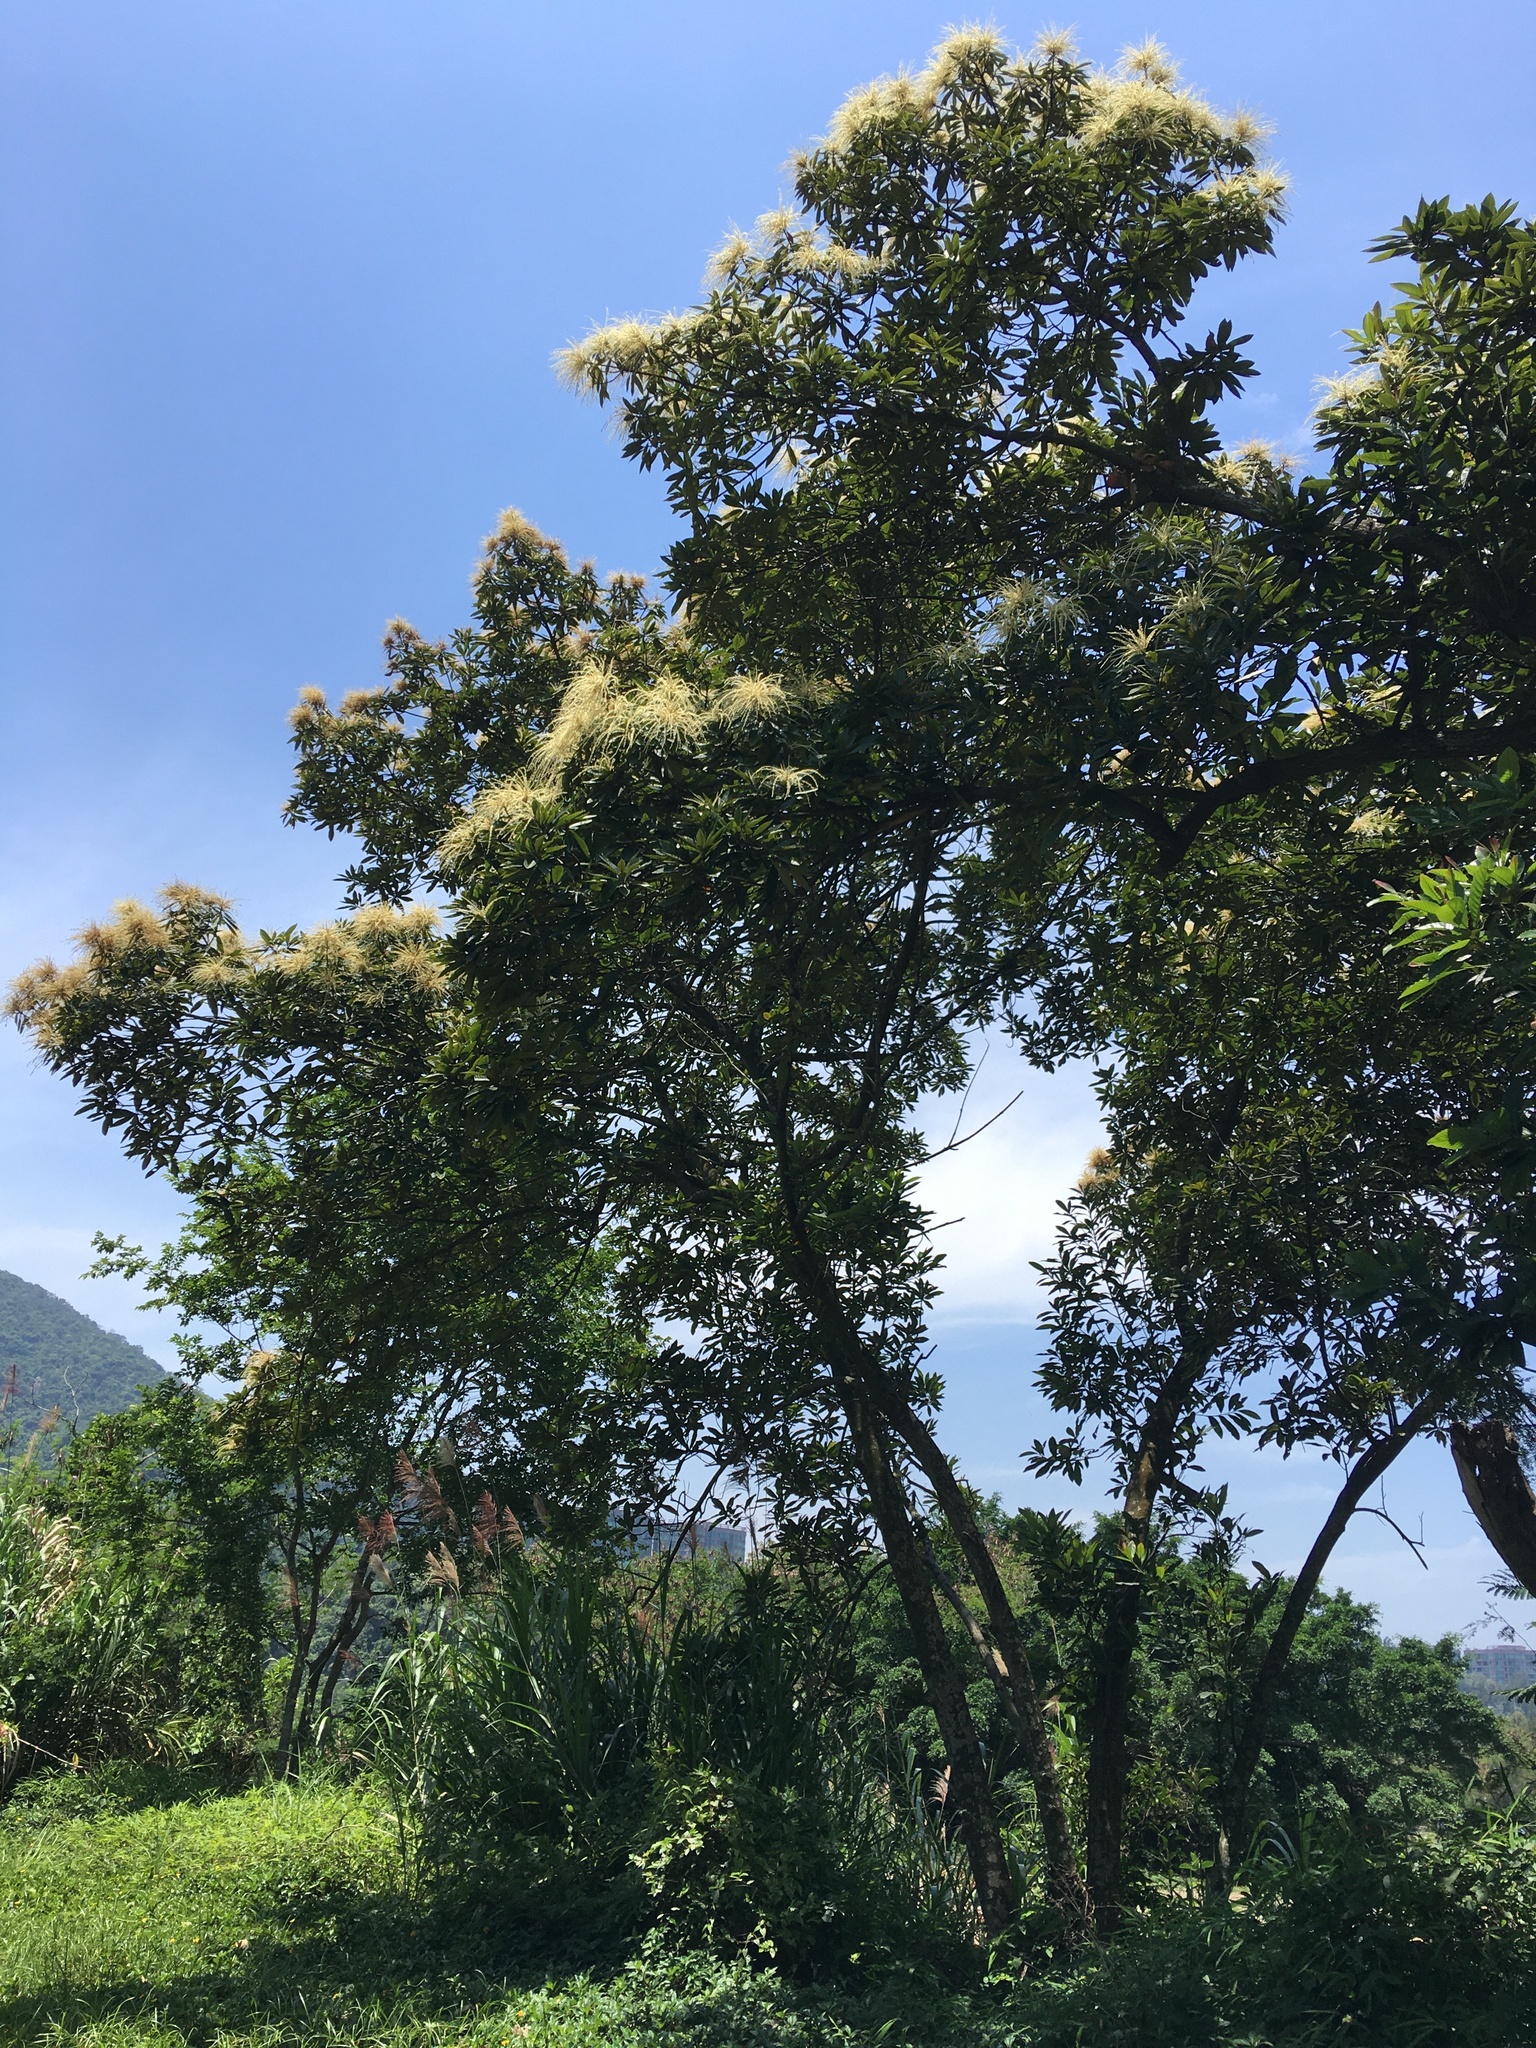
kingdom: Plantae
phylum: Tracheophyta
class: Magnoliopsida
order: Fagales
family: Fagaceae
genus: Castanopsis
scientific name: Castanopsis fissa
